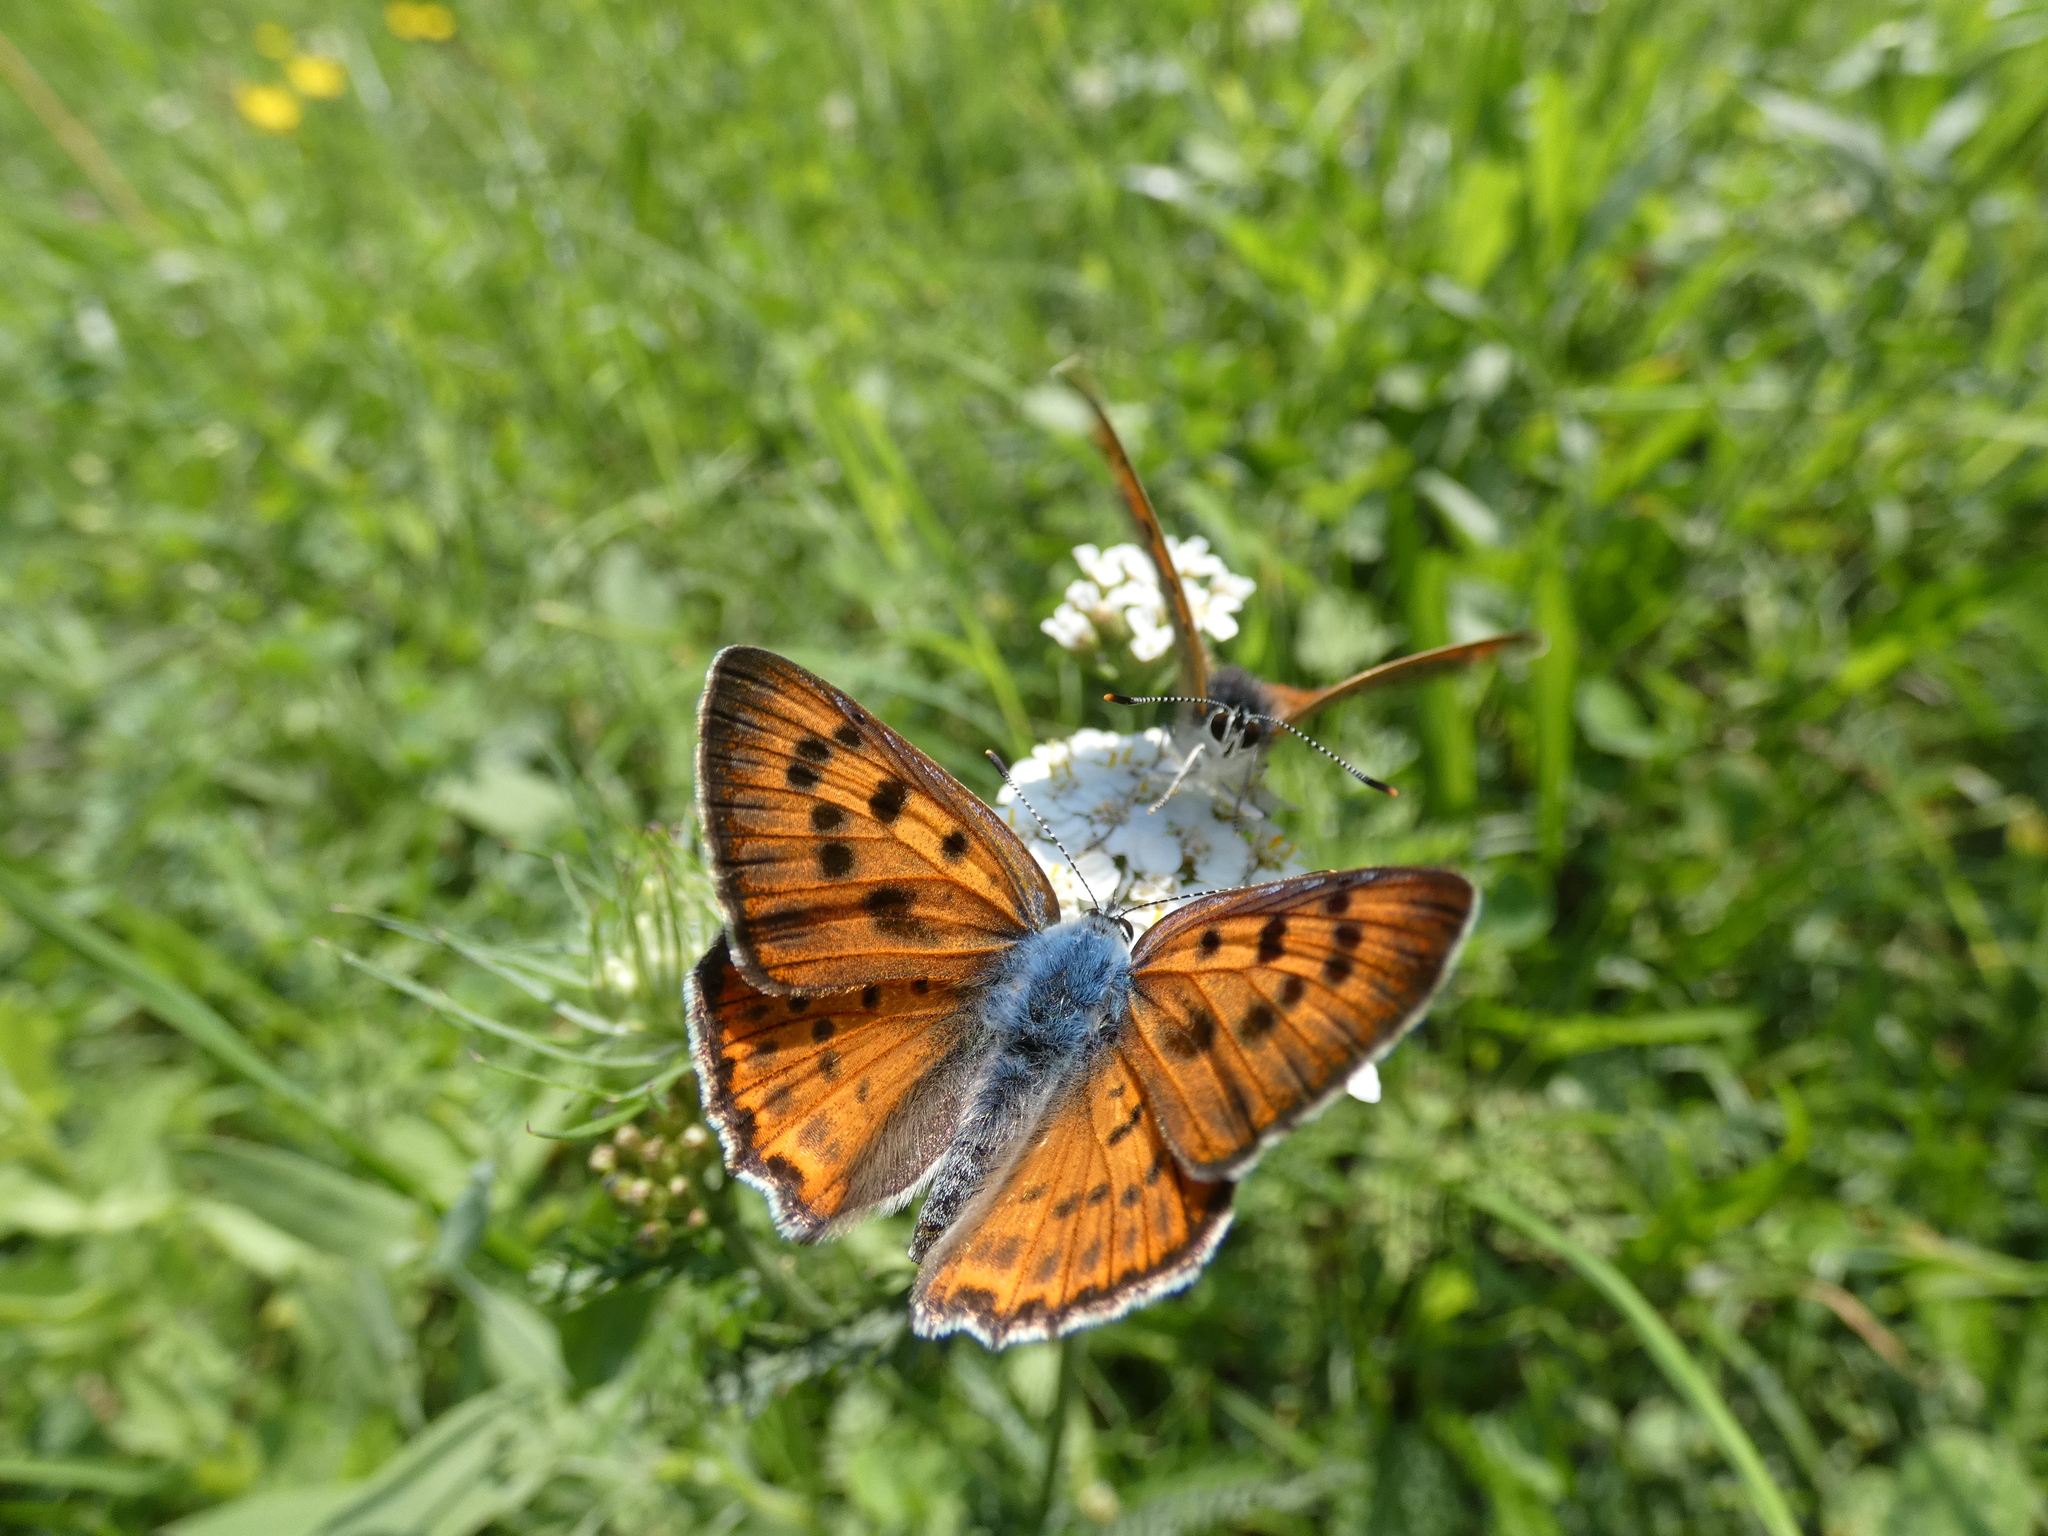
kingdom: Animalia
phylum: Arthropoda
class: Insecta
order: Lepidoptera
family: Lycaenidae
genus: Lycaena
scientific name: Lycaena alciphron
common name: Purple-shot copper
